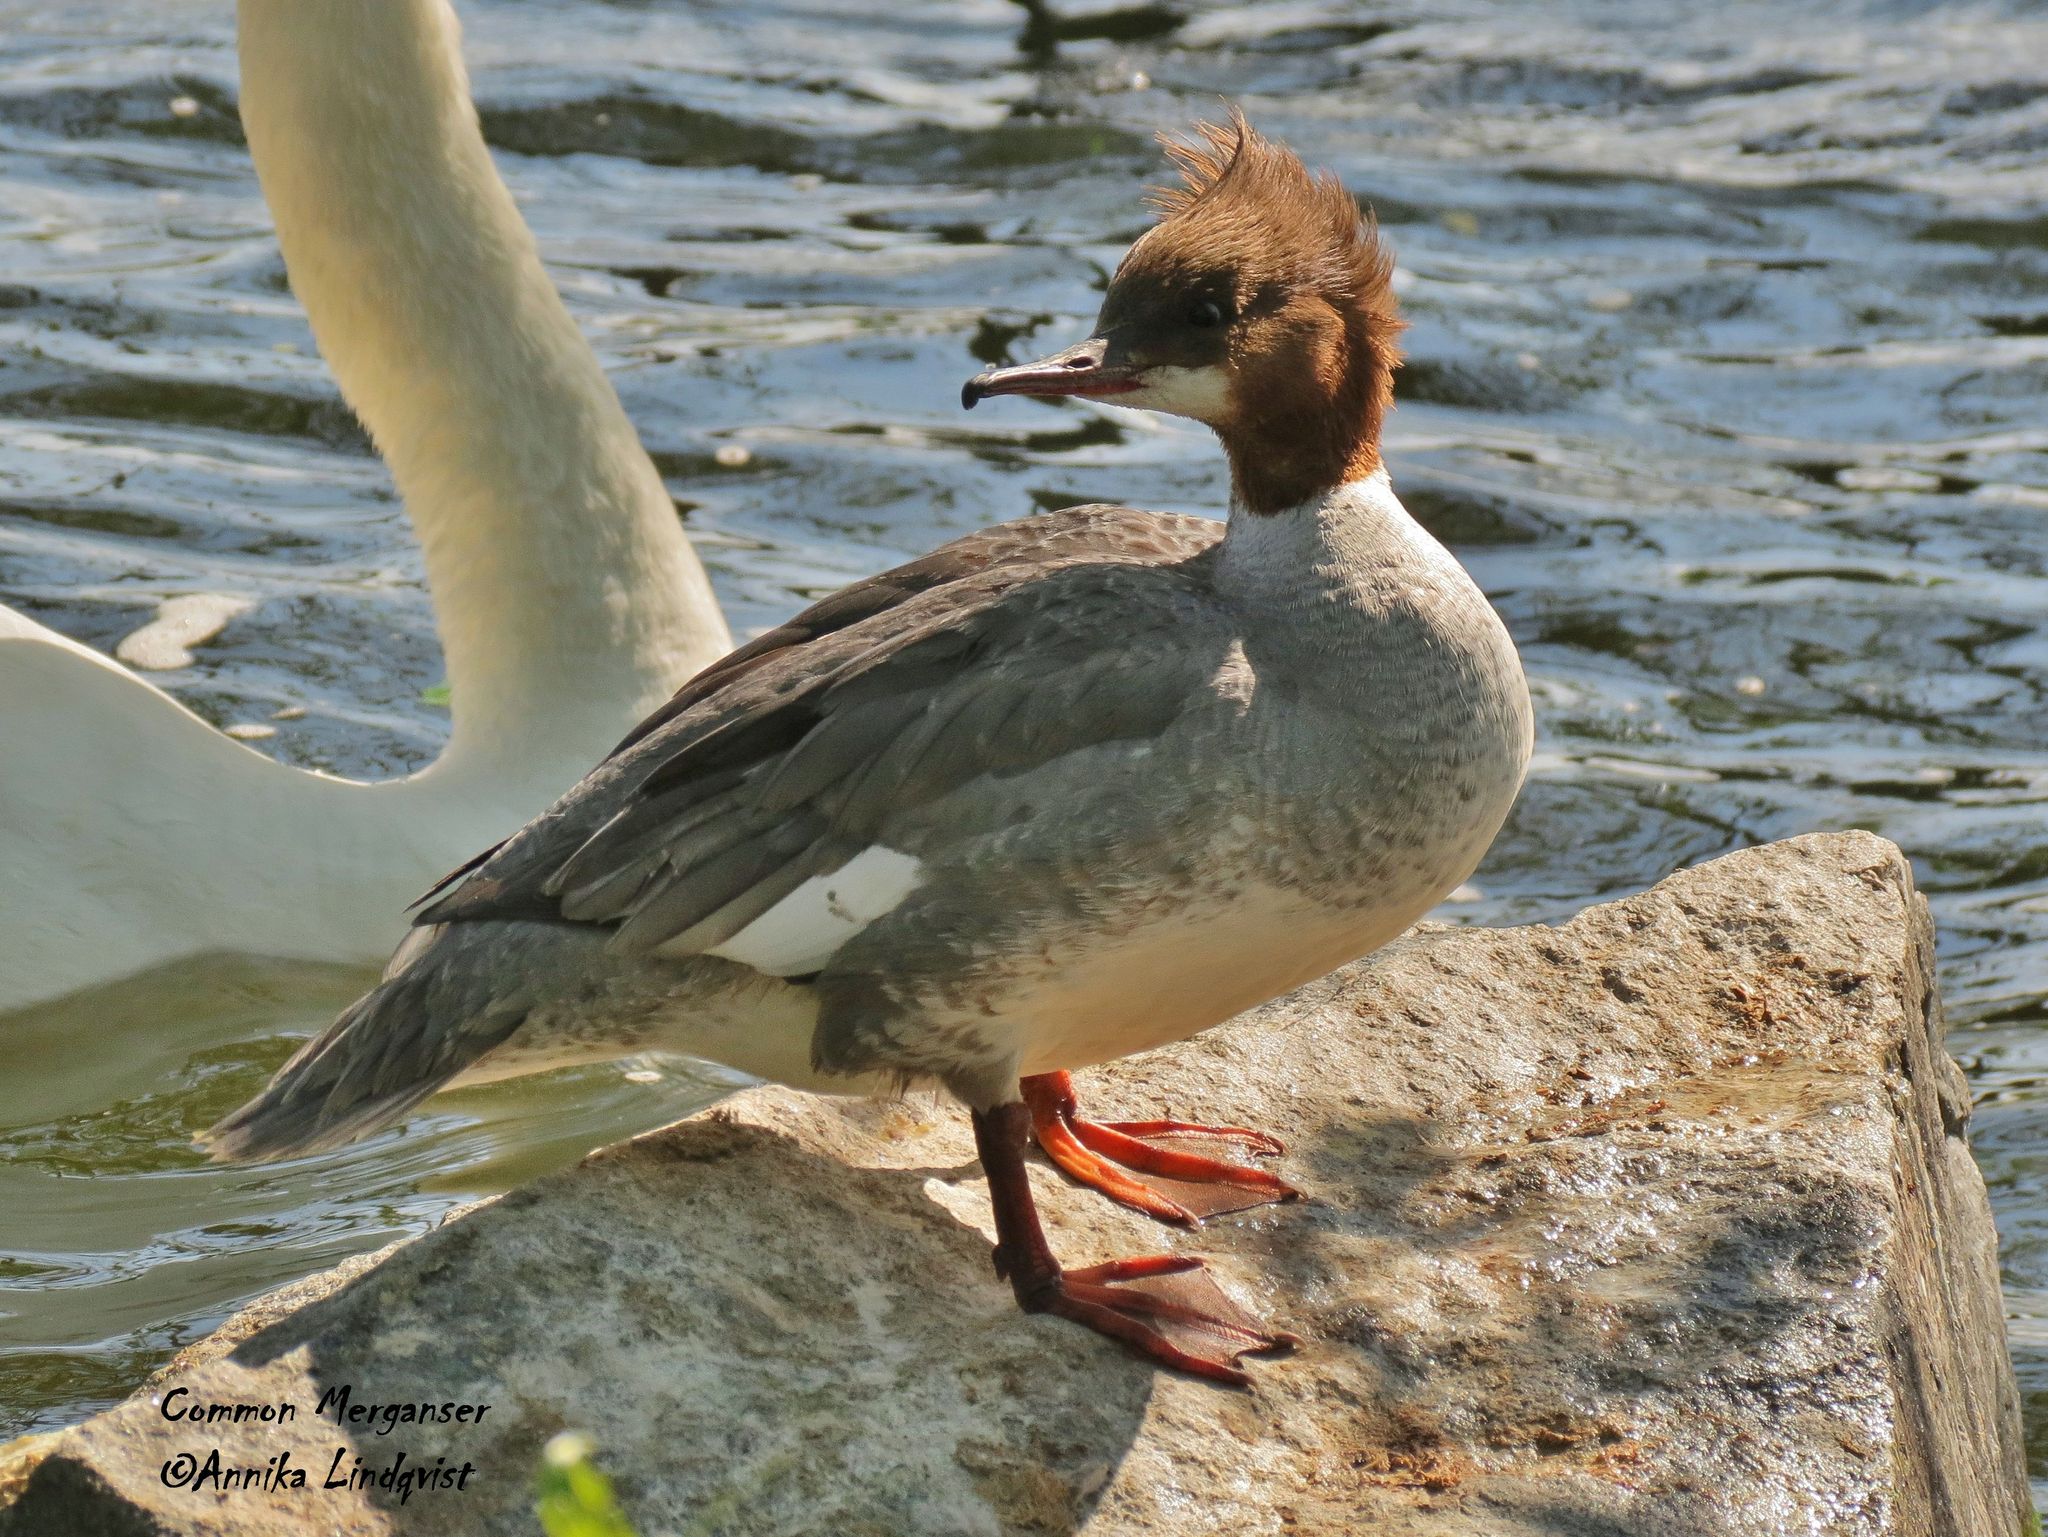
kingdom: Animalia
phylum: Chordata
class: Aves
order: Anseriformes
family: Anatidae
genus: Mergus
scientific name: Mergus merganser
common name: Common merganser
